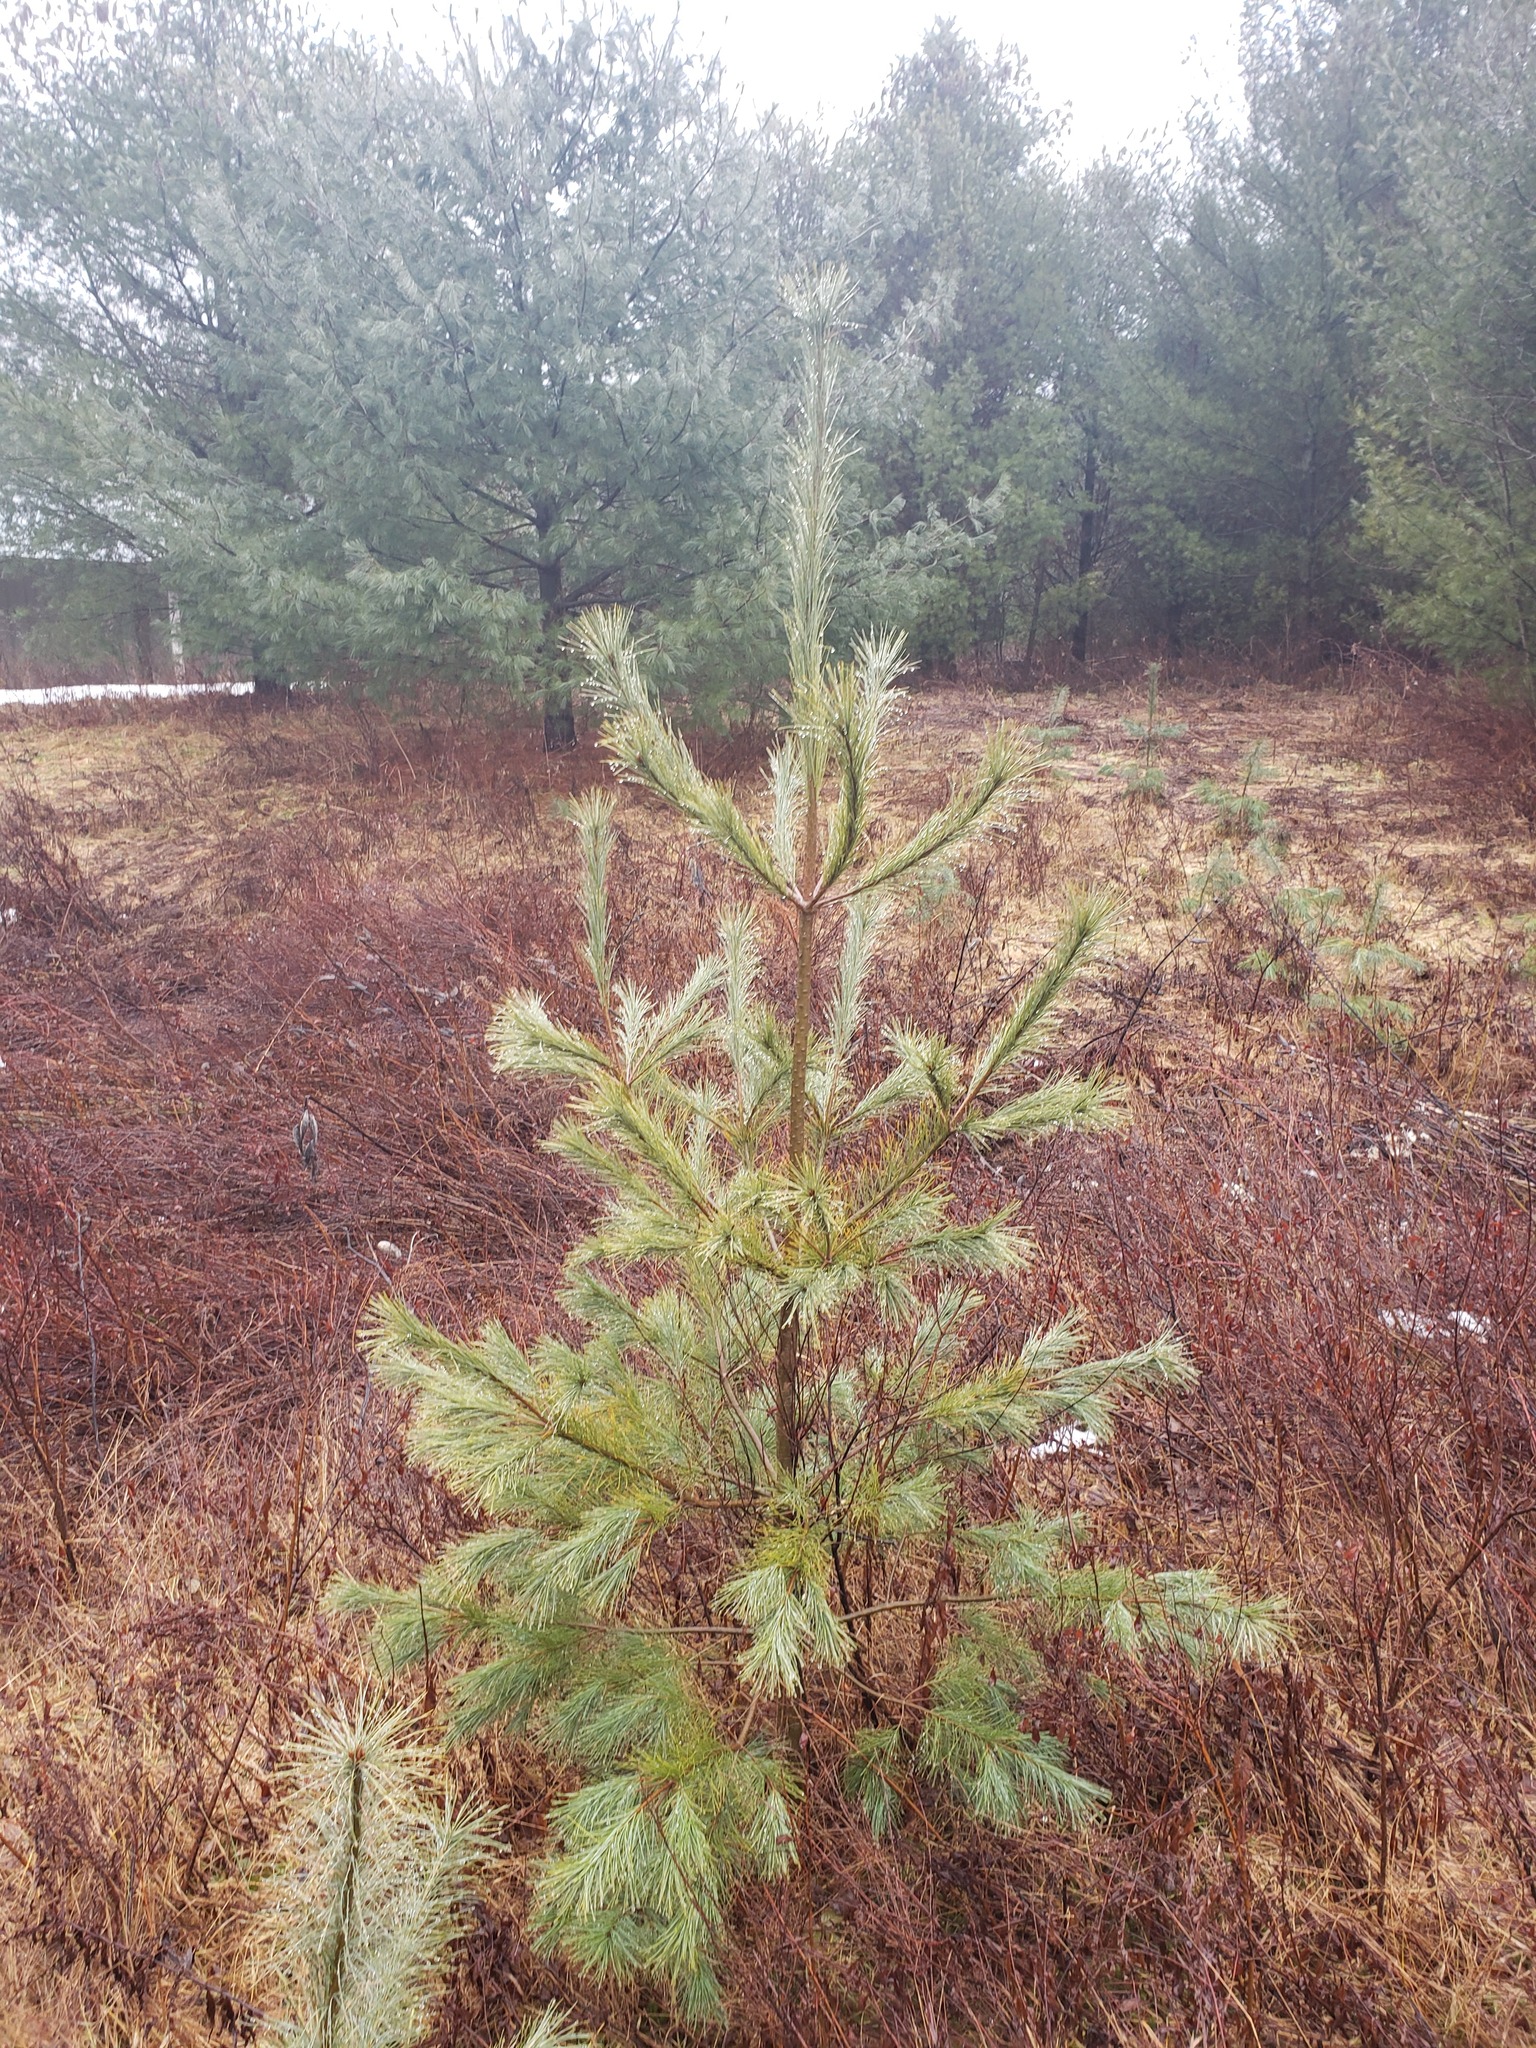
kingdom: Plantae
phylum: Tracheophyta
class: Pinopsida
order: Pinales
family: Pinaceae
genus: Pinus
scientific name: Pinus strobus
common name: Weymouth pine
